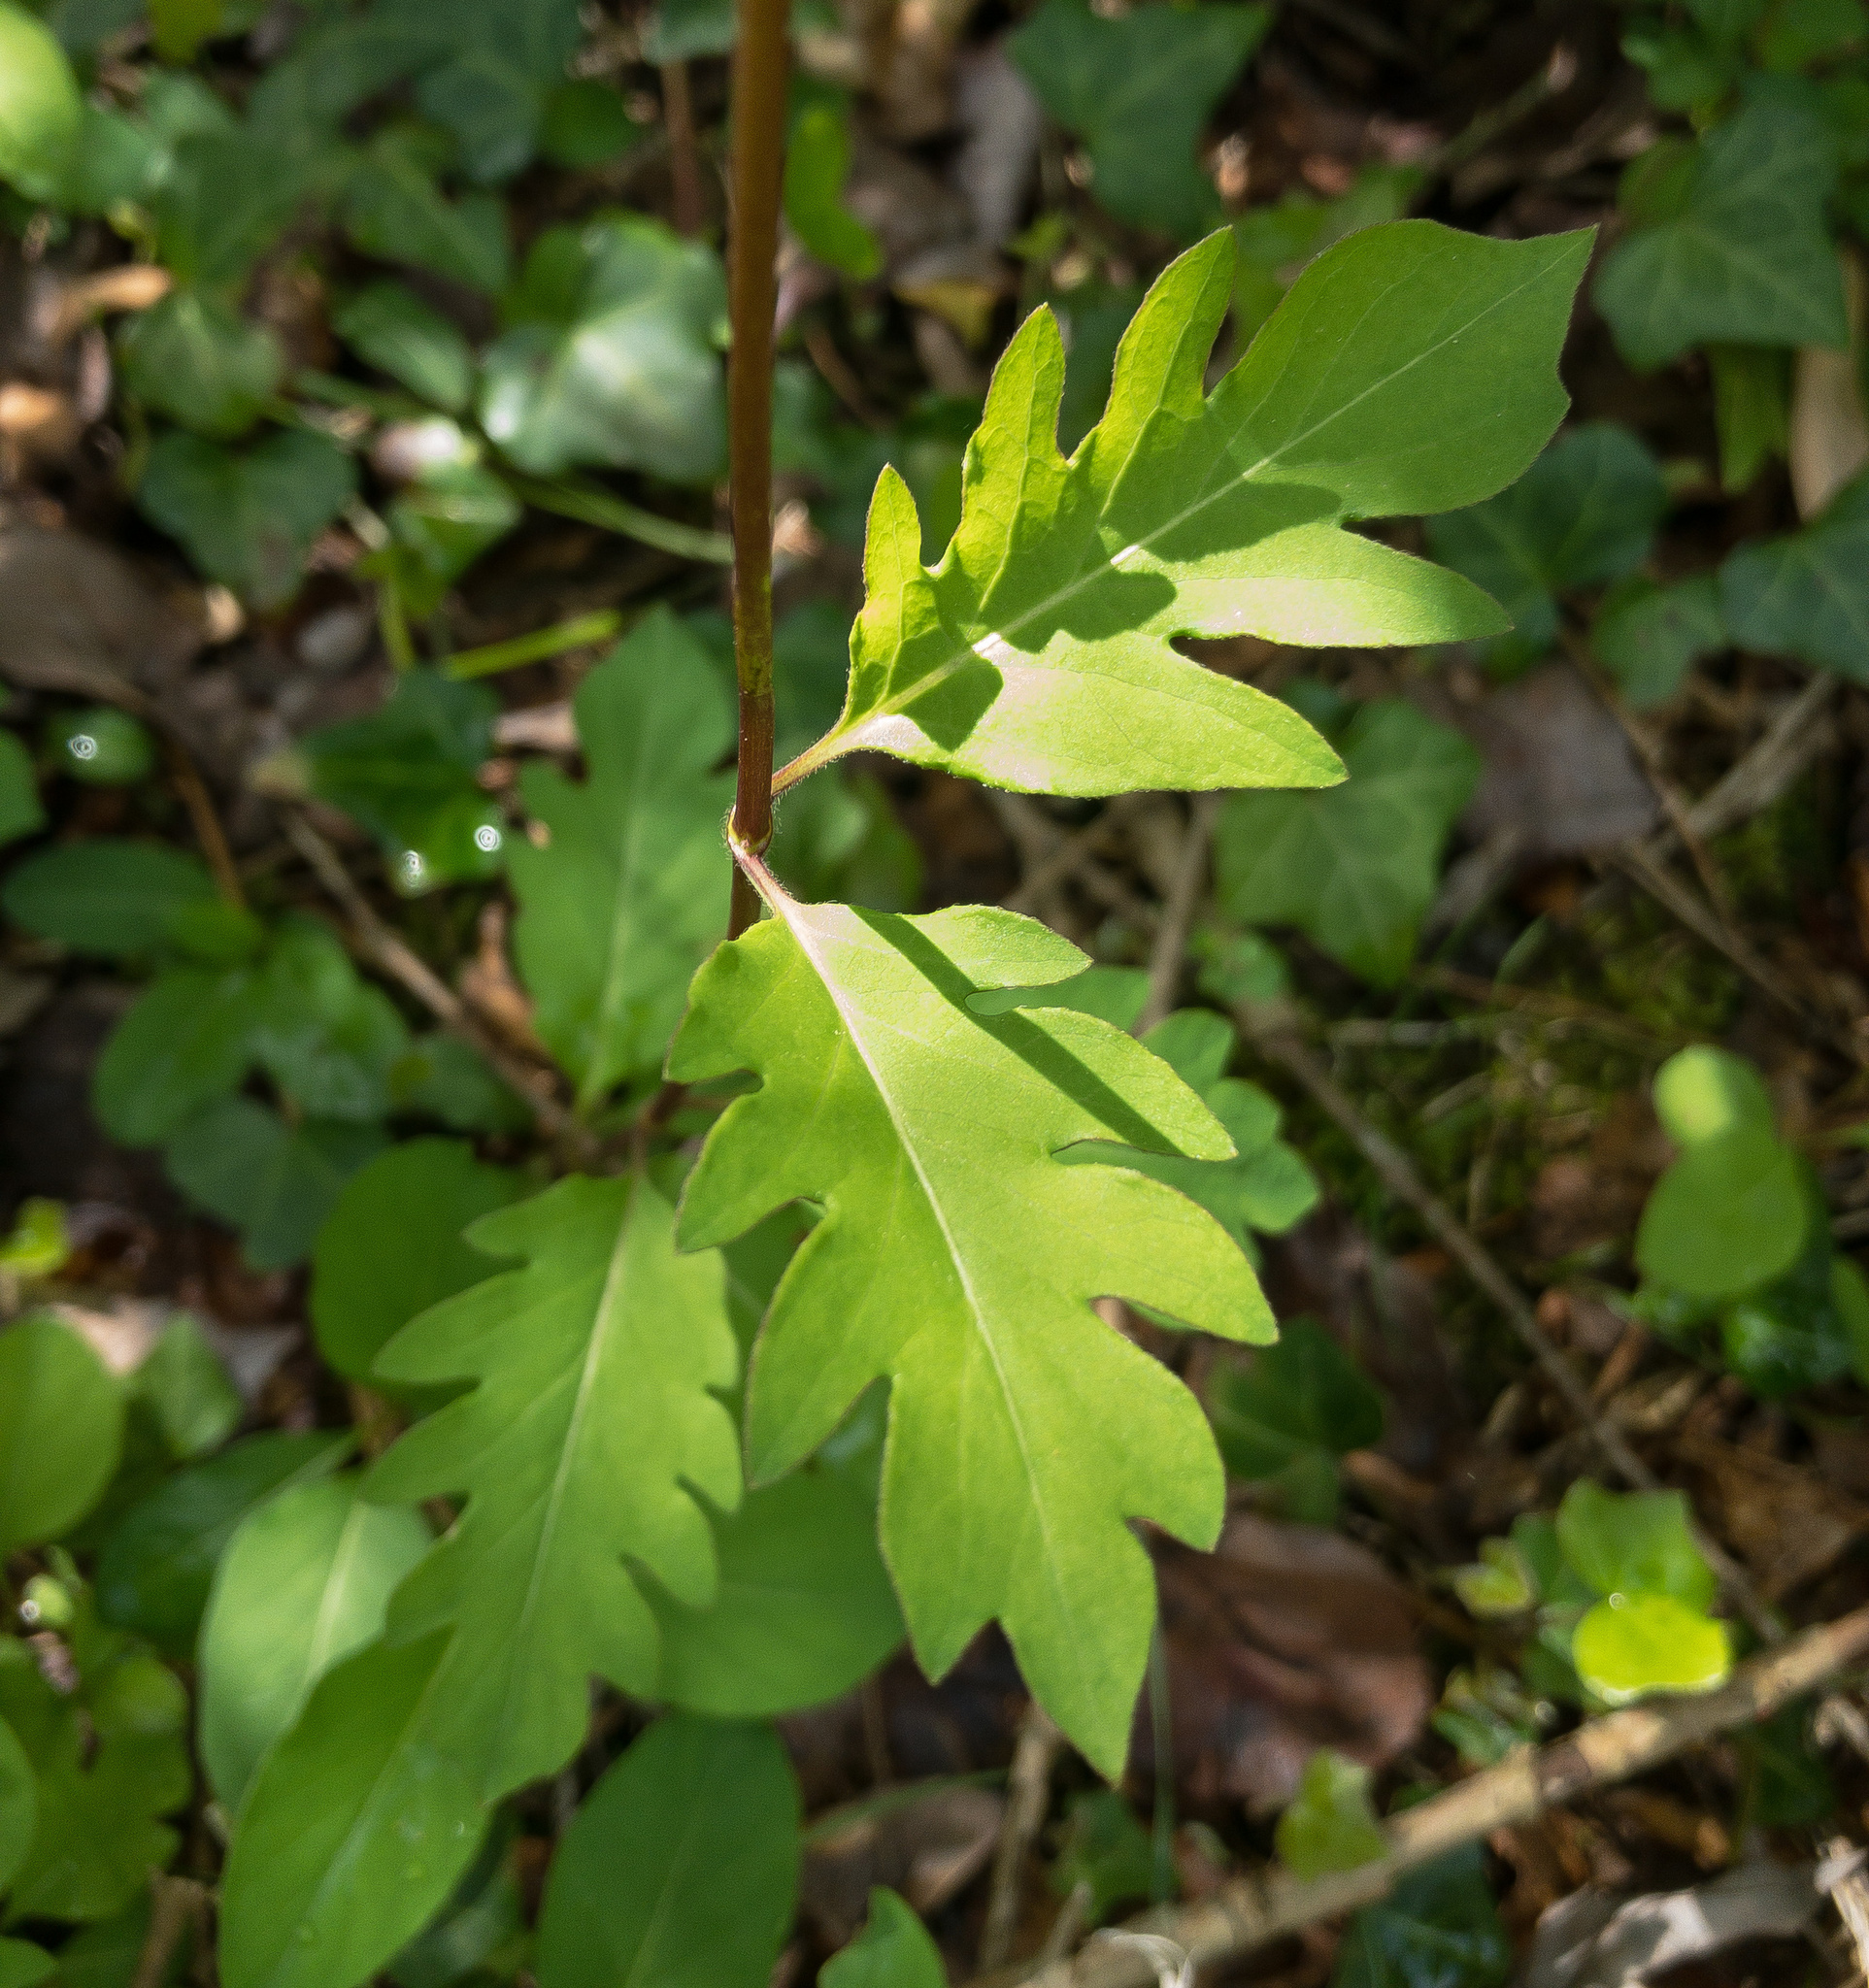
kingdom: Plantae
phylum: Tracheophyta
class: Magnoliopsida
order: Dipsacales
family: Caprifoliaceae
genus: Lonicera
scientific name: Lonicera japonica
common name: Japanese honeysuckle
